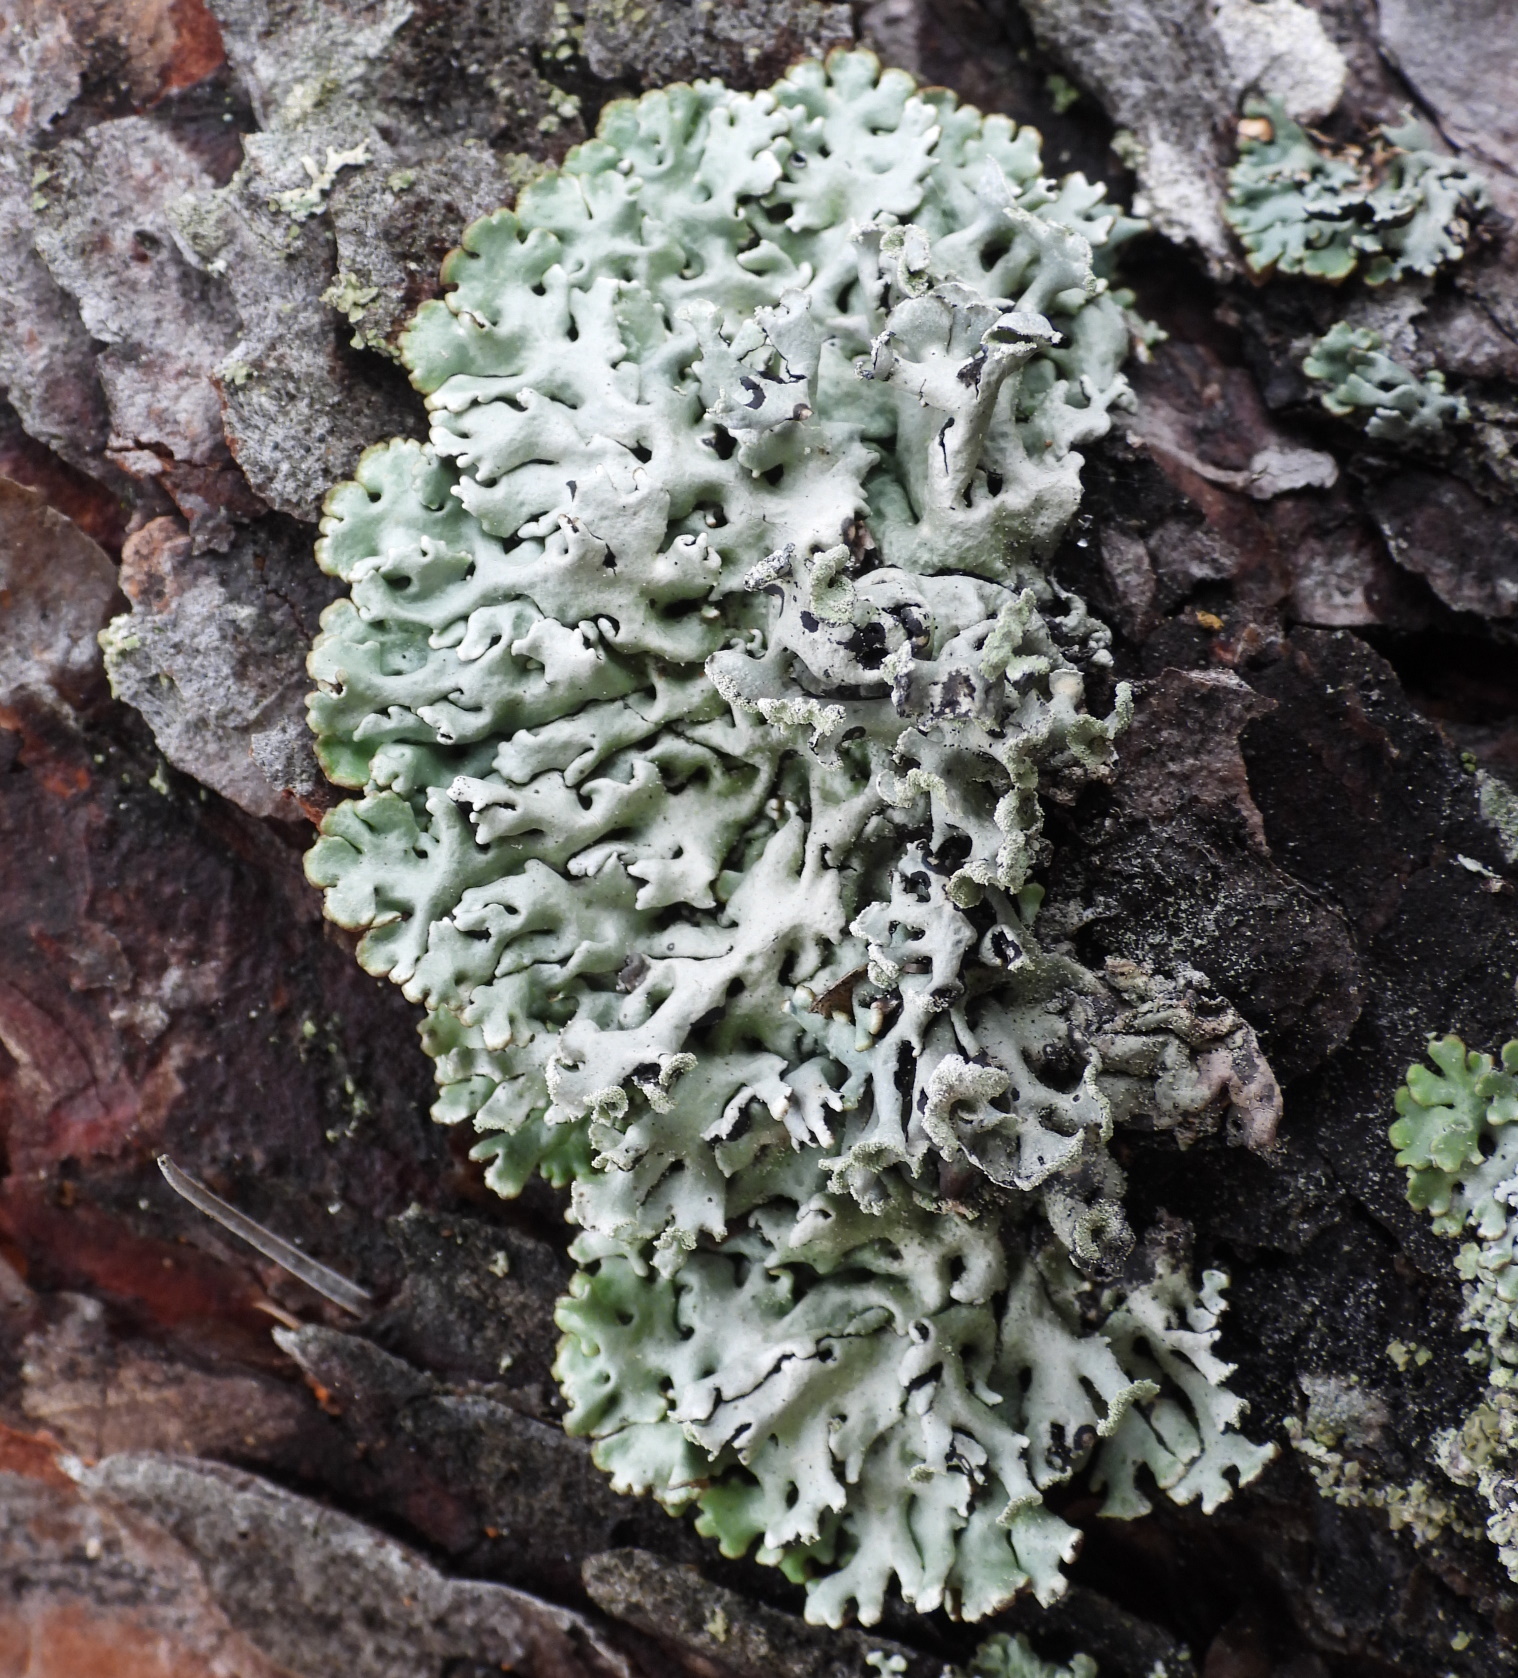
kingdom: Fungi
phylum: Ascomycota
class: Lecanoromycetes
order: Lecanorales
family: Parmeliaceae
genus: Hypogymnia
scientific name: Hypogymnia physodes
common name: Dark crottle
